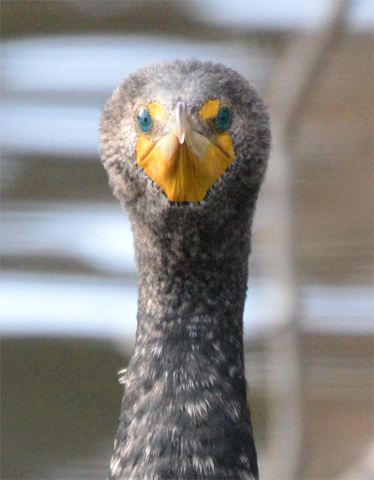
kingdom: Animalia
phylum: Chordata
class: Aves
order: Suliformes
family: Phalacrocoracidae
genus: Phalacrocorax
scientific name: Phalacrocorax auritus
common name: Double-crested cormorant
